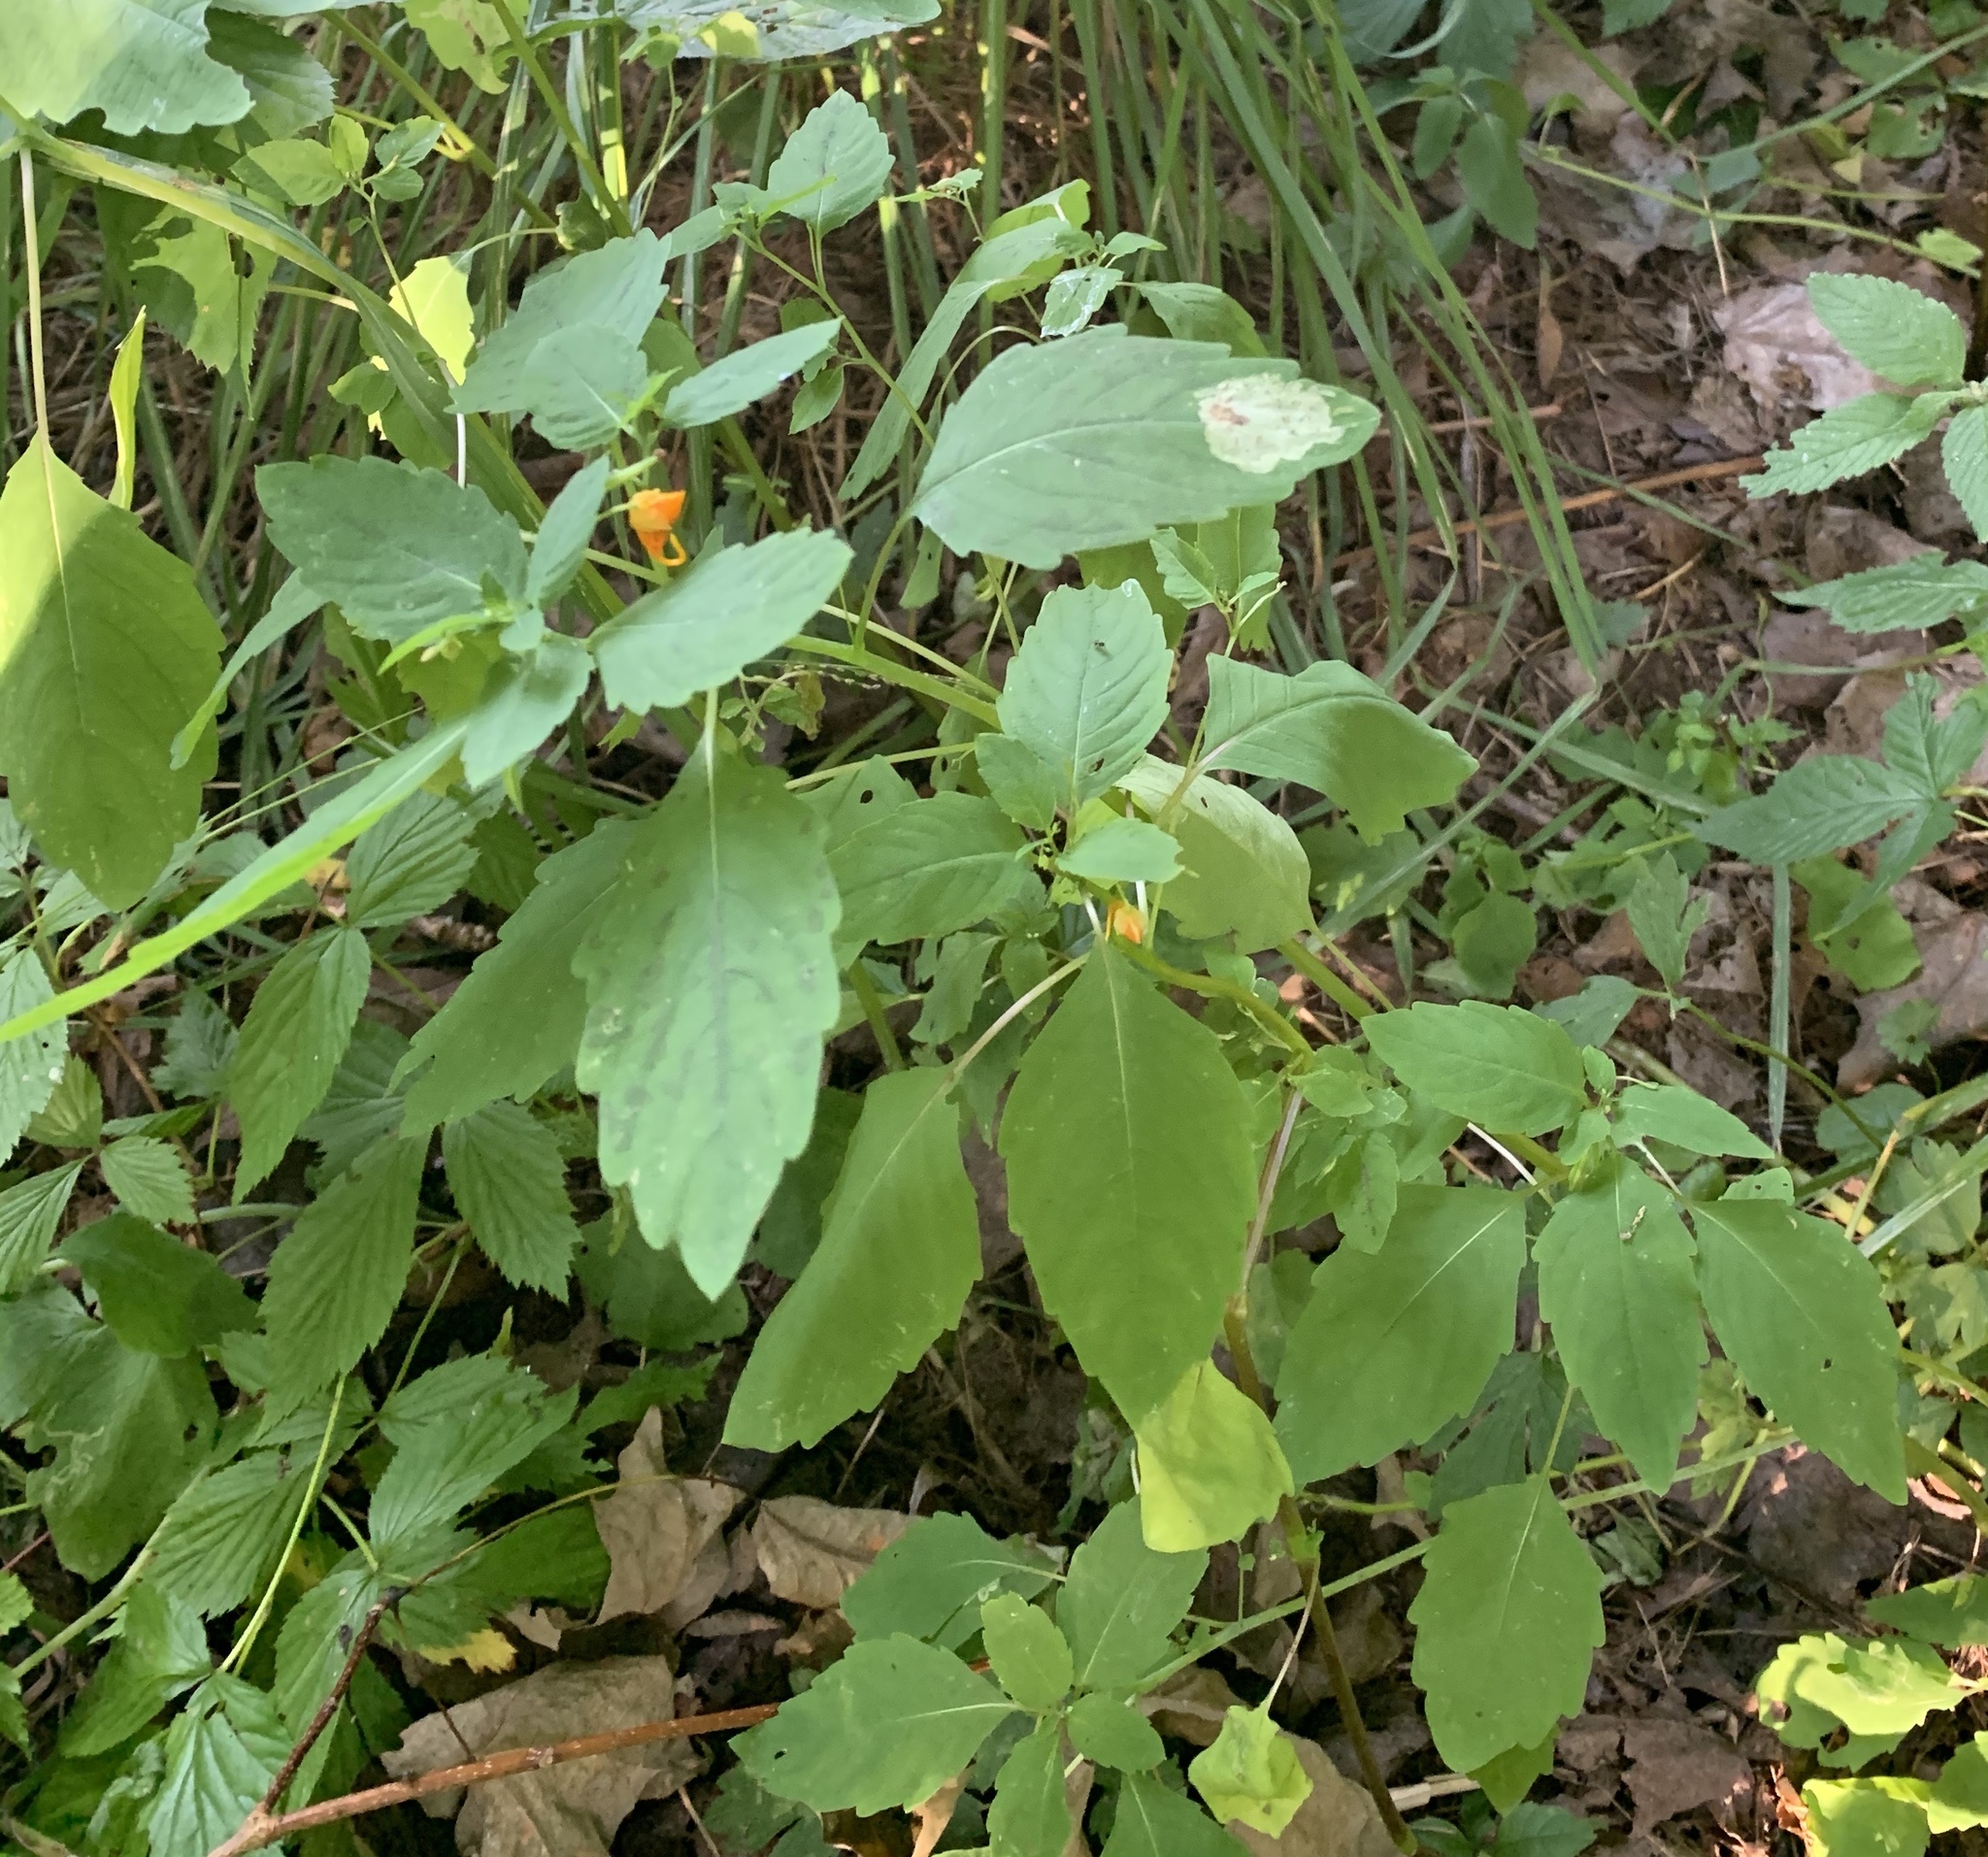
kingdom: Plantae
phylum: Tracheophyta
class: Magnoliopsida
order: Ericales
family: Balsaminaceae
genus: Impatiens
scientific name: Impatiens capensis
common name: Orange balsam
